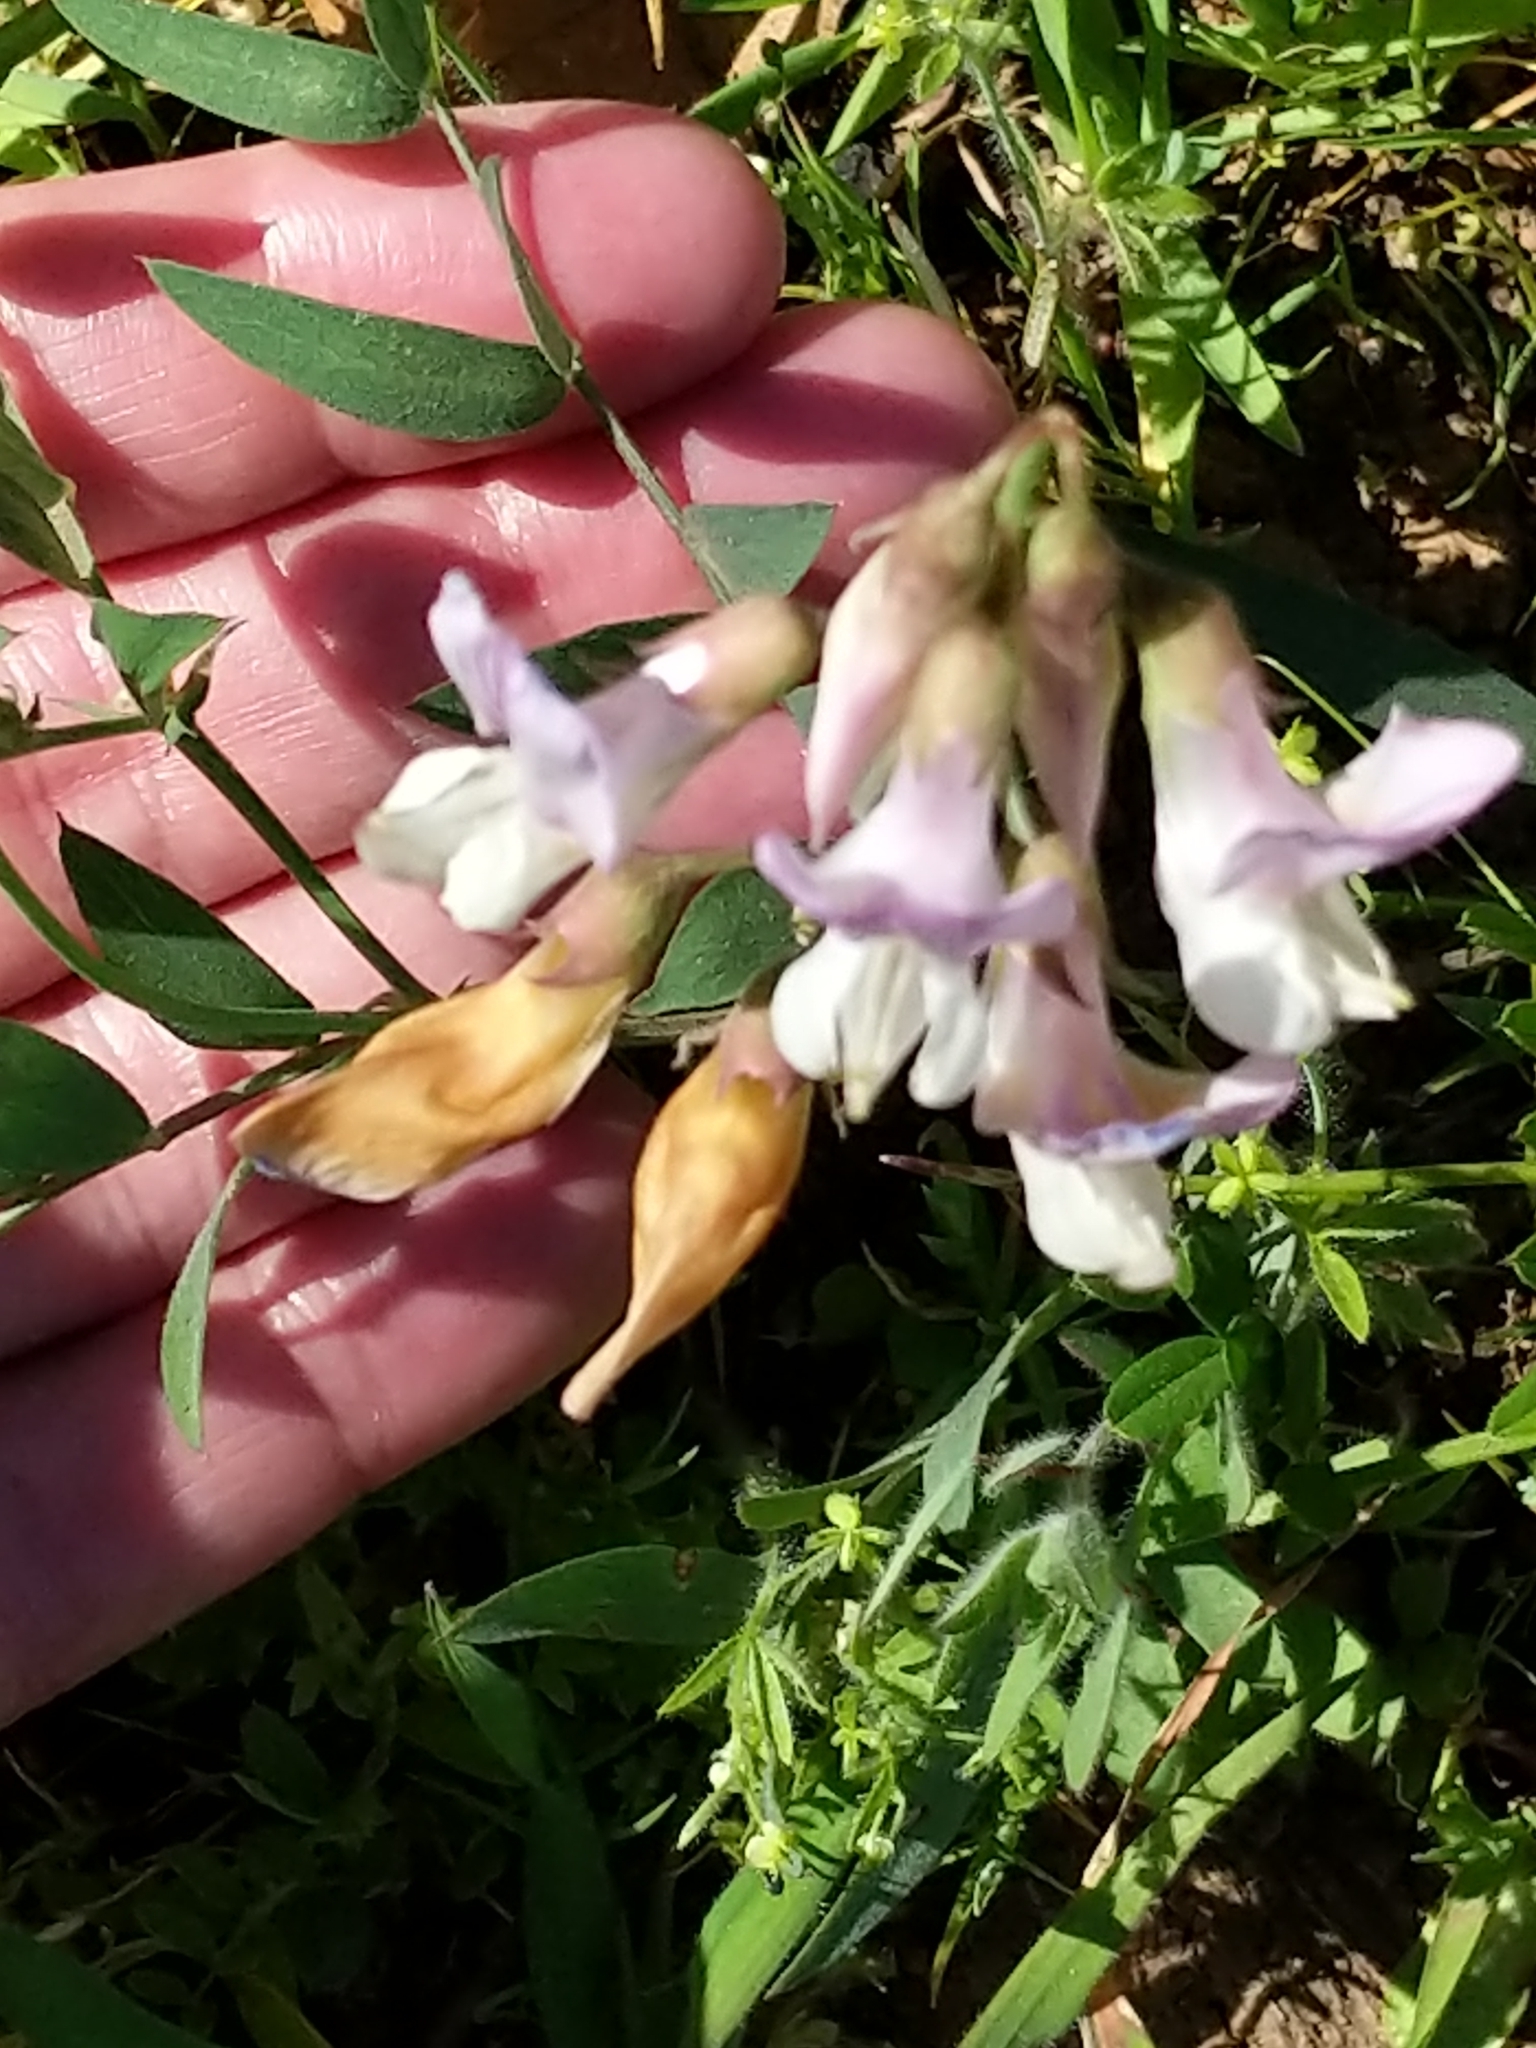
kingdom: Plantae
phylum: Tracheophyta
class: Magnoliopsida
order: Fabales
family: Fabaceae
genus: Lathyrus
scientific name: Lathyrus vestitus
